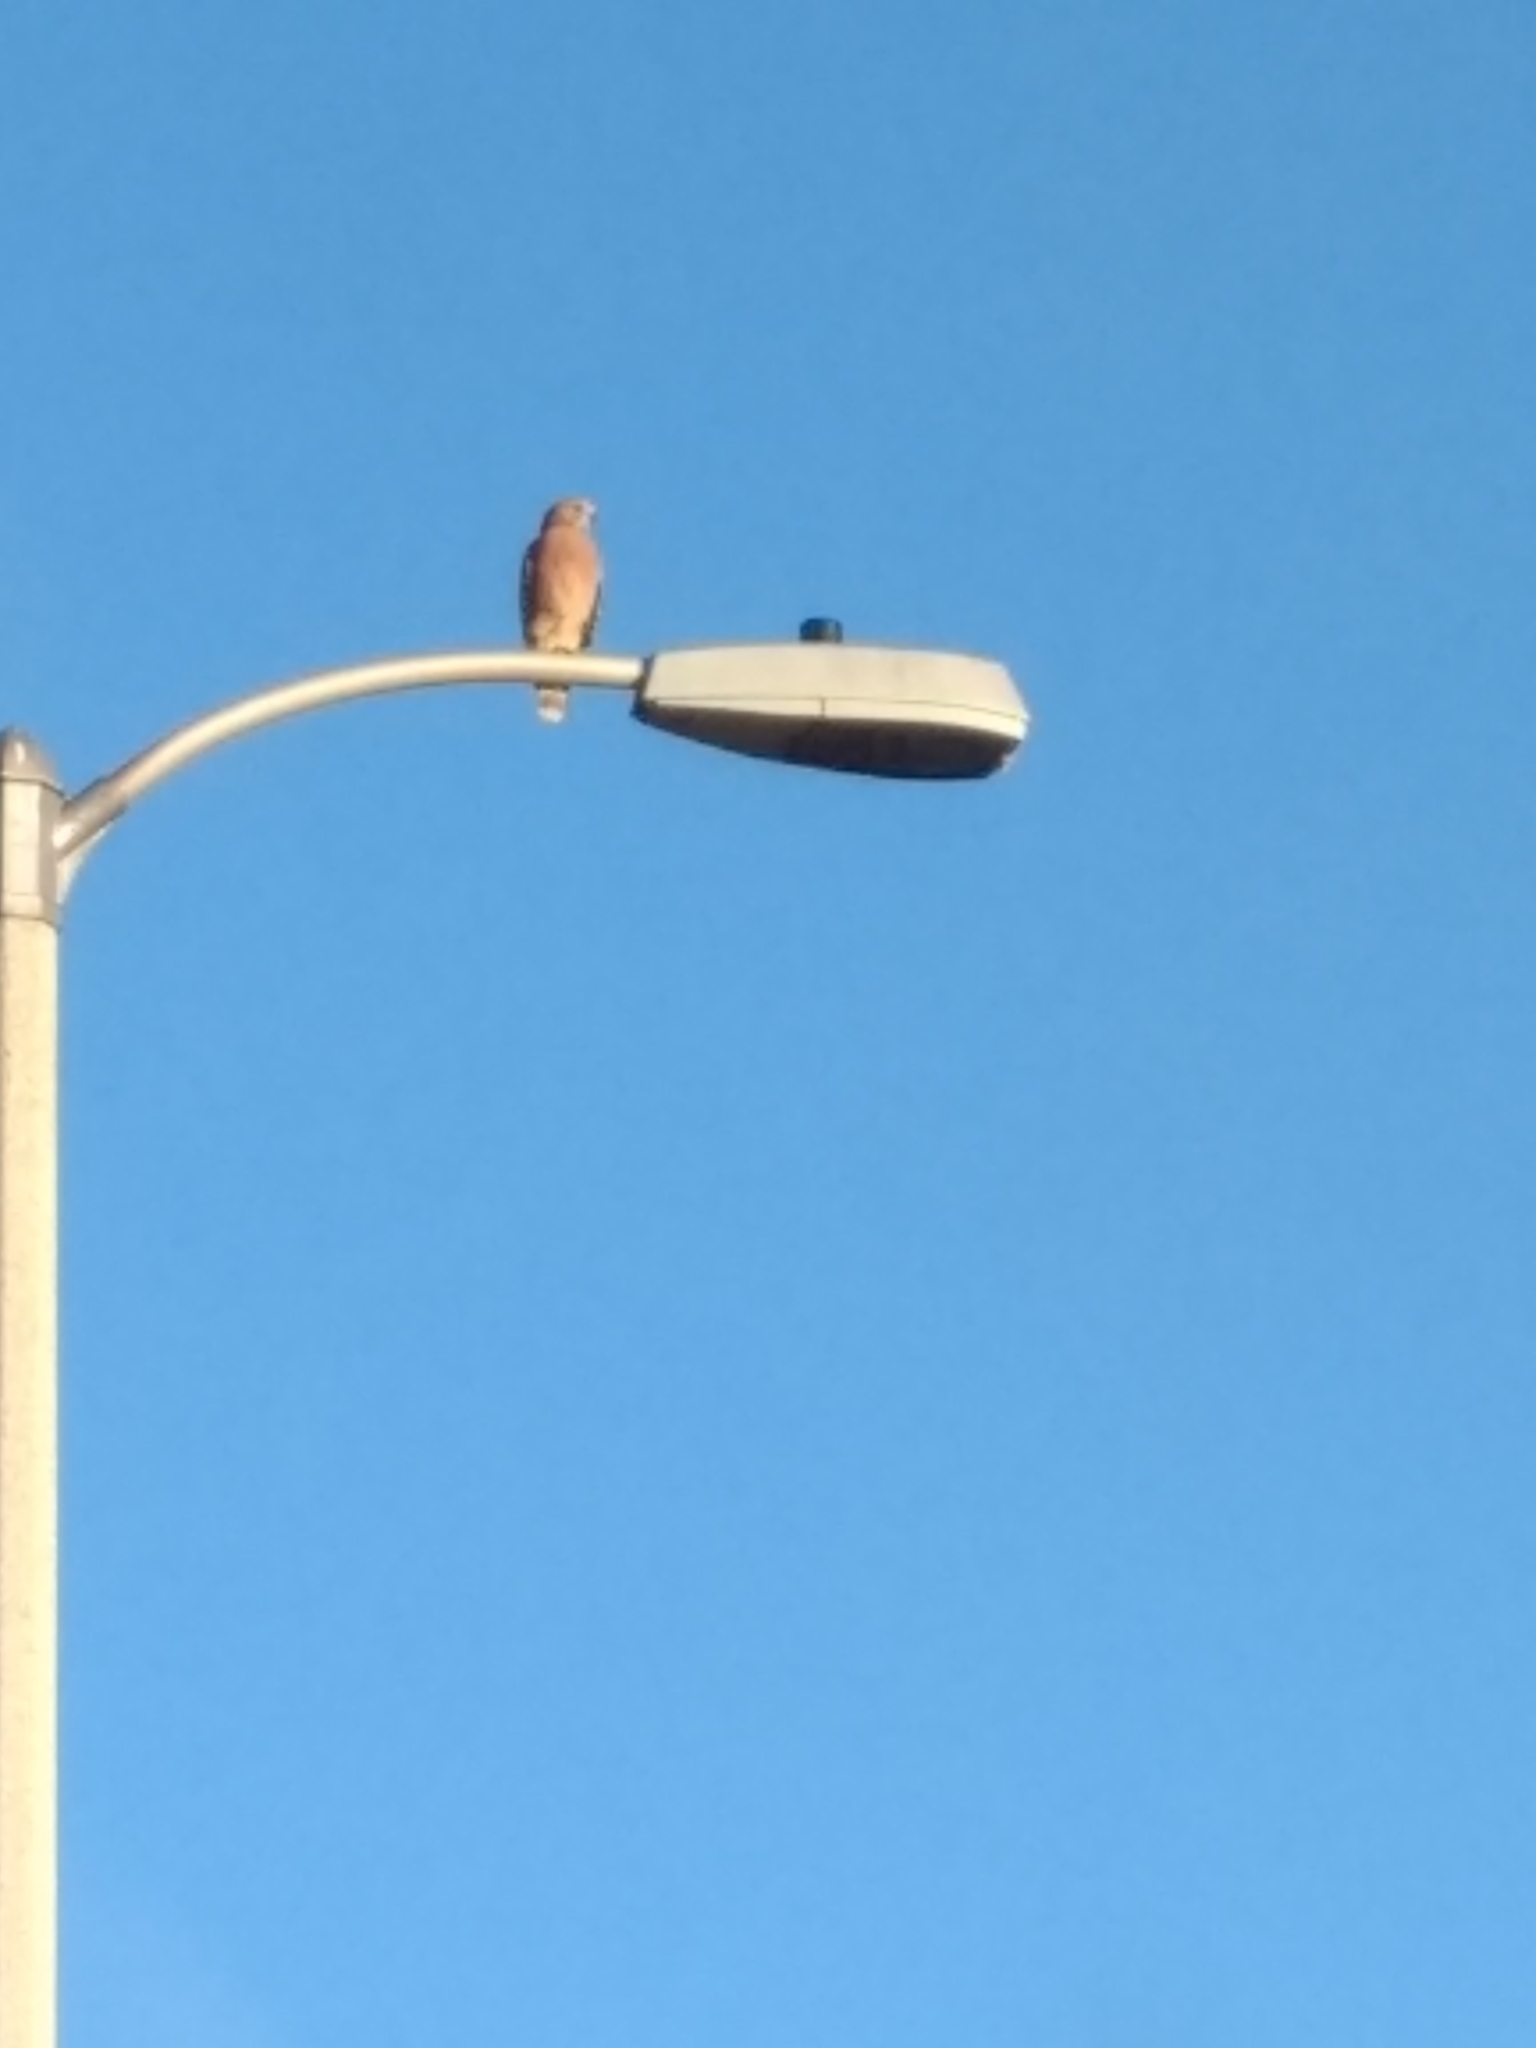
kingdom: Animalia
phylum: Chordata
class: Aves
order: Accipitriformes
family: Accipitridae
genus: Buteo
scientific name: Buteo lineatus
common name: Red-shouldered hawk
